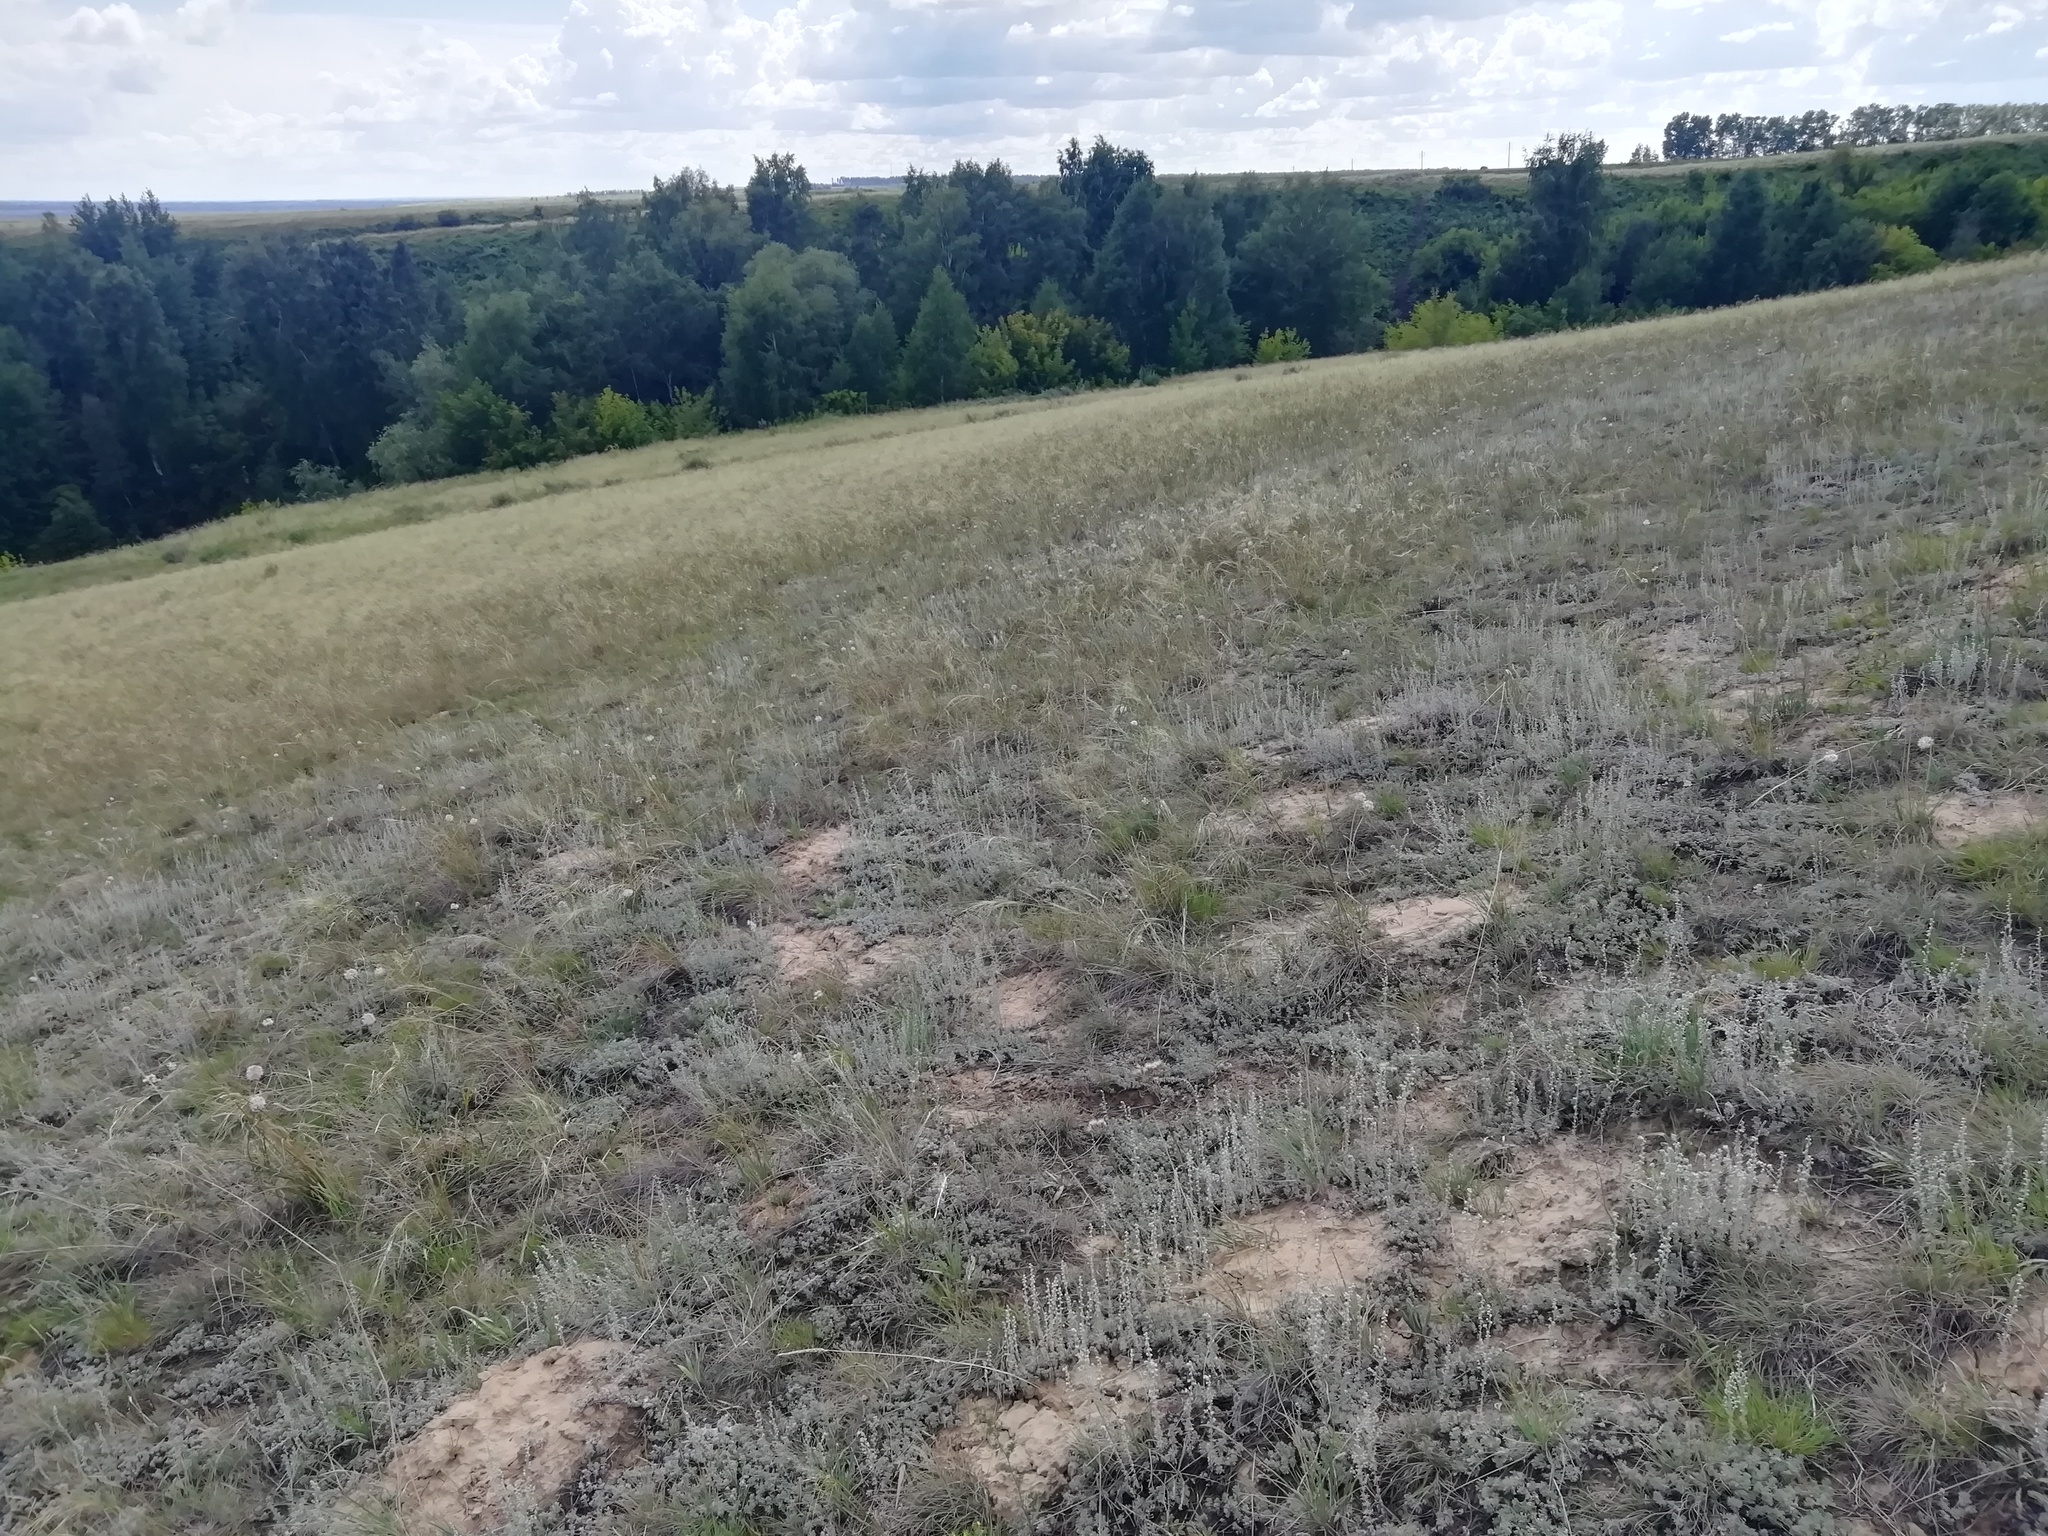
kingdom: Animalia
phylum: Arthropoda
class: Insecta
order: Lepidoptera
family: Nymphalidae
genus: Satyrus
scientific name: Satyrus briseis
